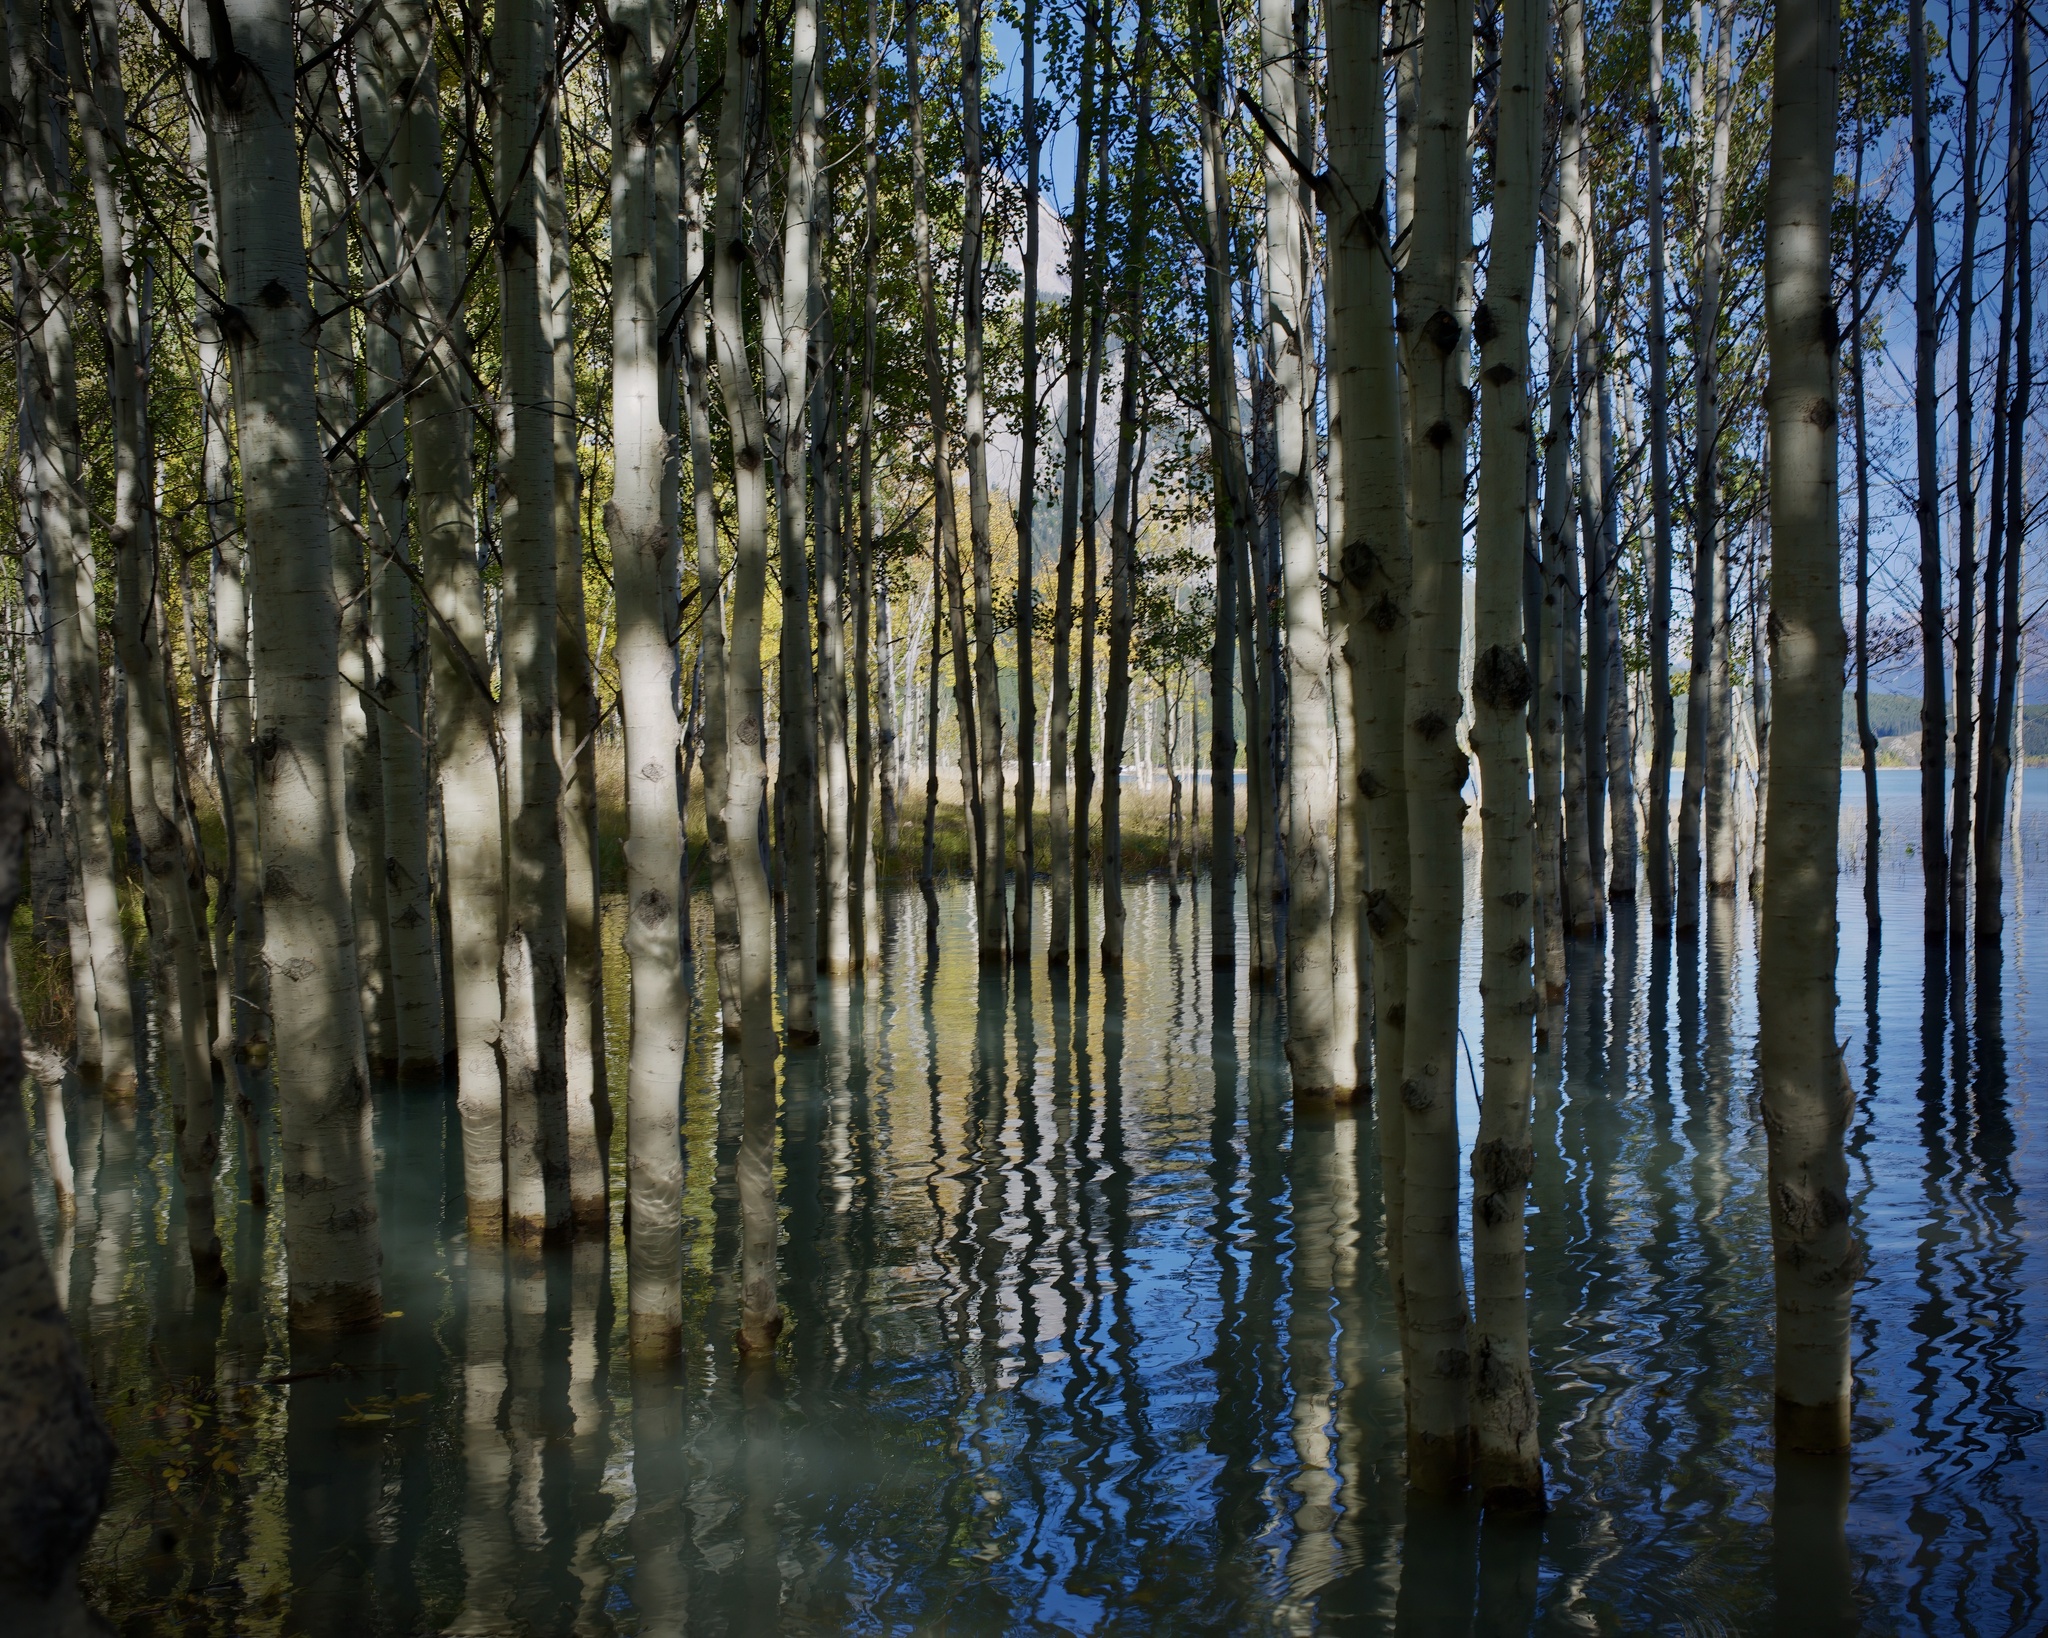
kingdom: Plantae
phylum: Tracheophyta
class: Magnoliopsida
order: Malpighiales
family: Salicaceae
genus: Populus
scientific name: Populus tremuloides
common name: Quaking aspen
